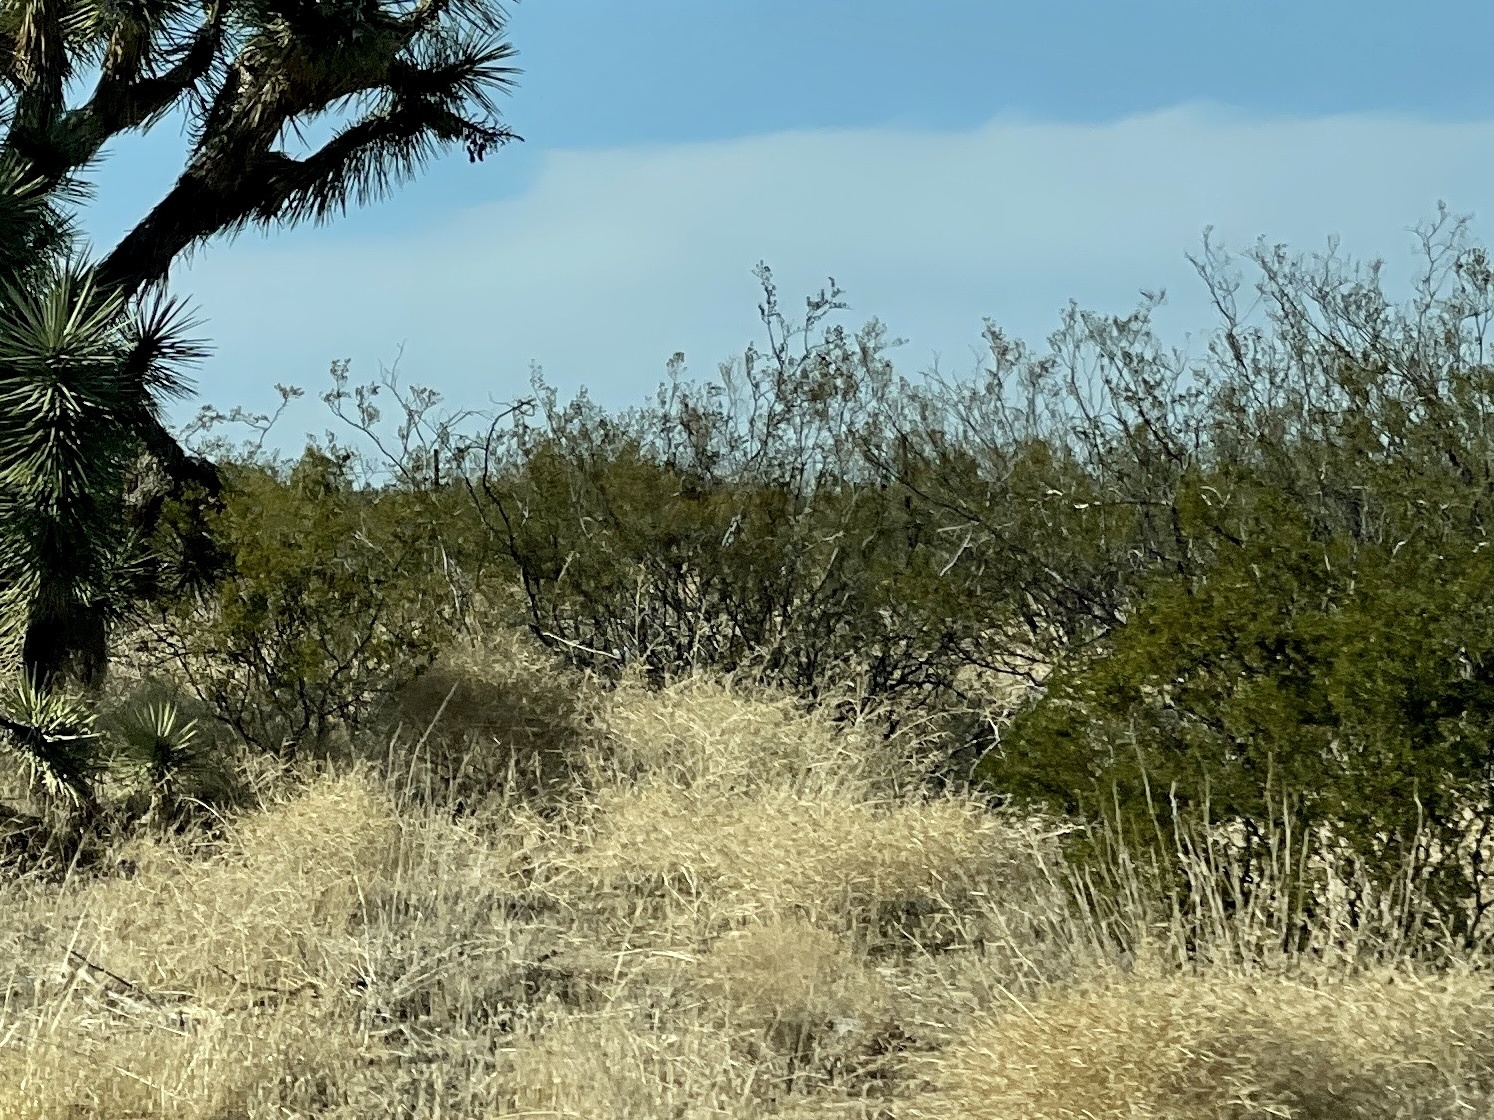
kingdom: Plantae
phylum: Tracheophyta
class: Magnoliopsida
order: Zygophyllales
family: Zygophyllaceae
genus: Larrea
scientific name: Larrea tridentata
